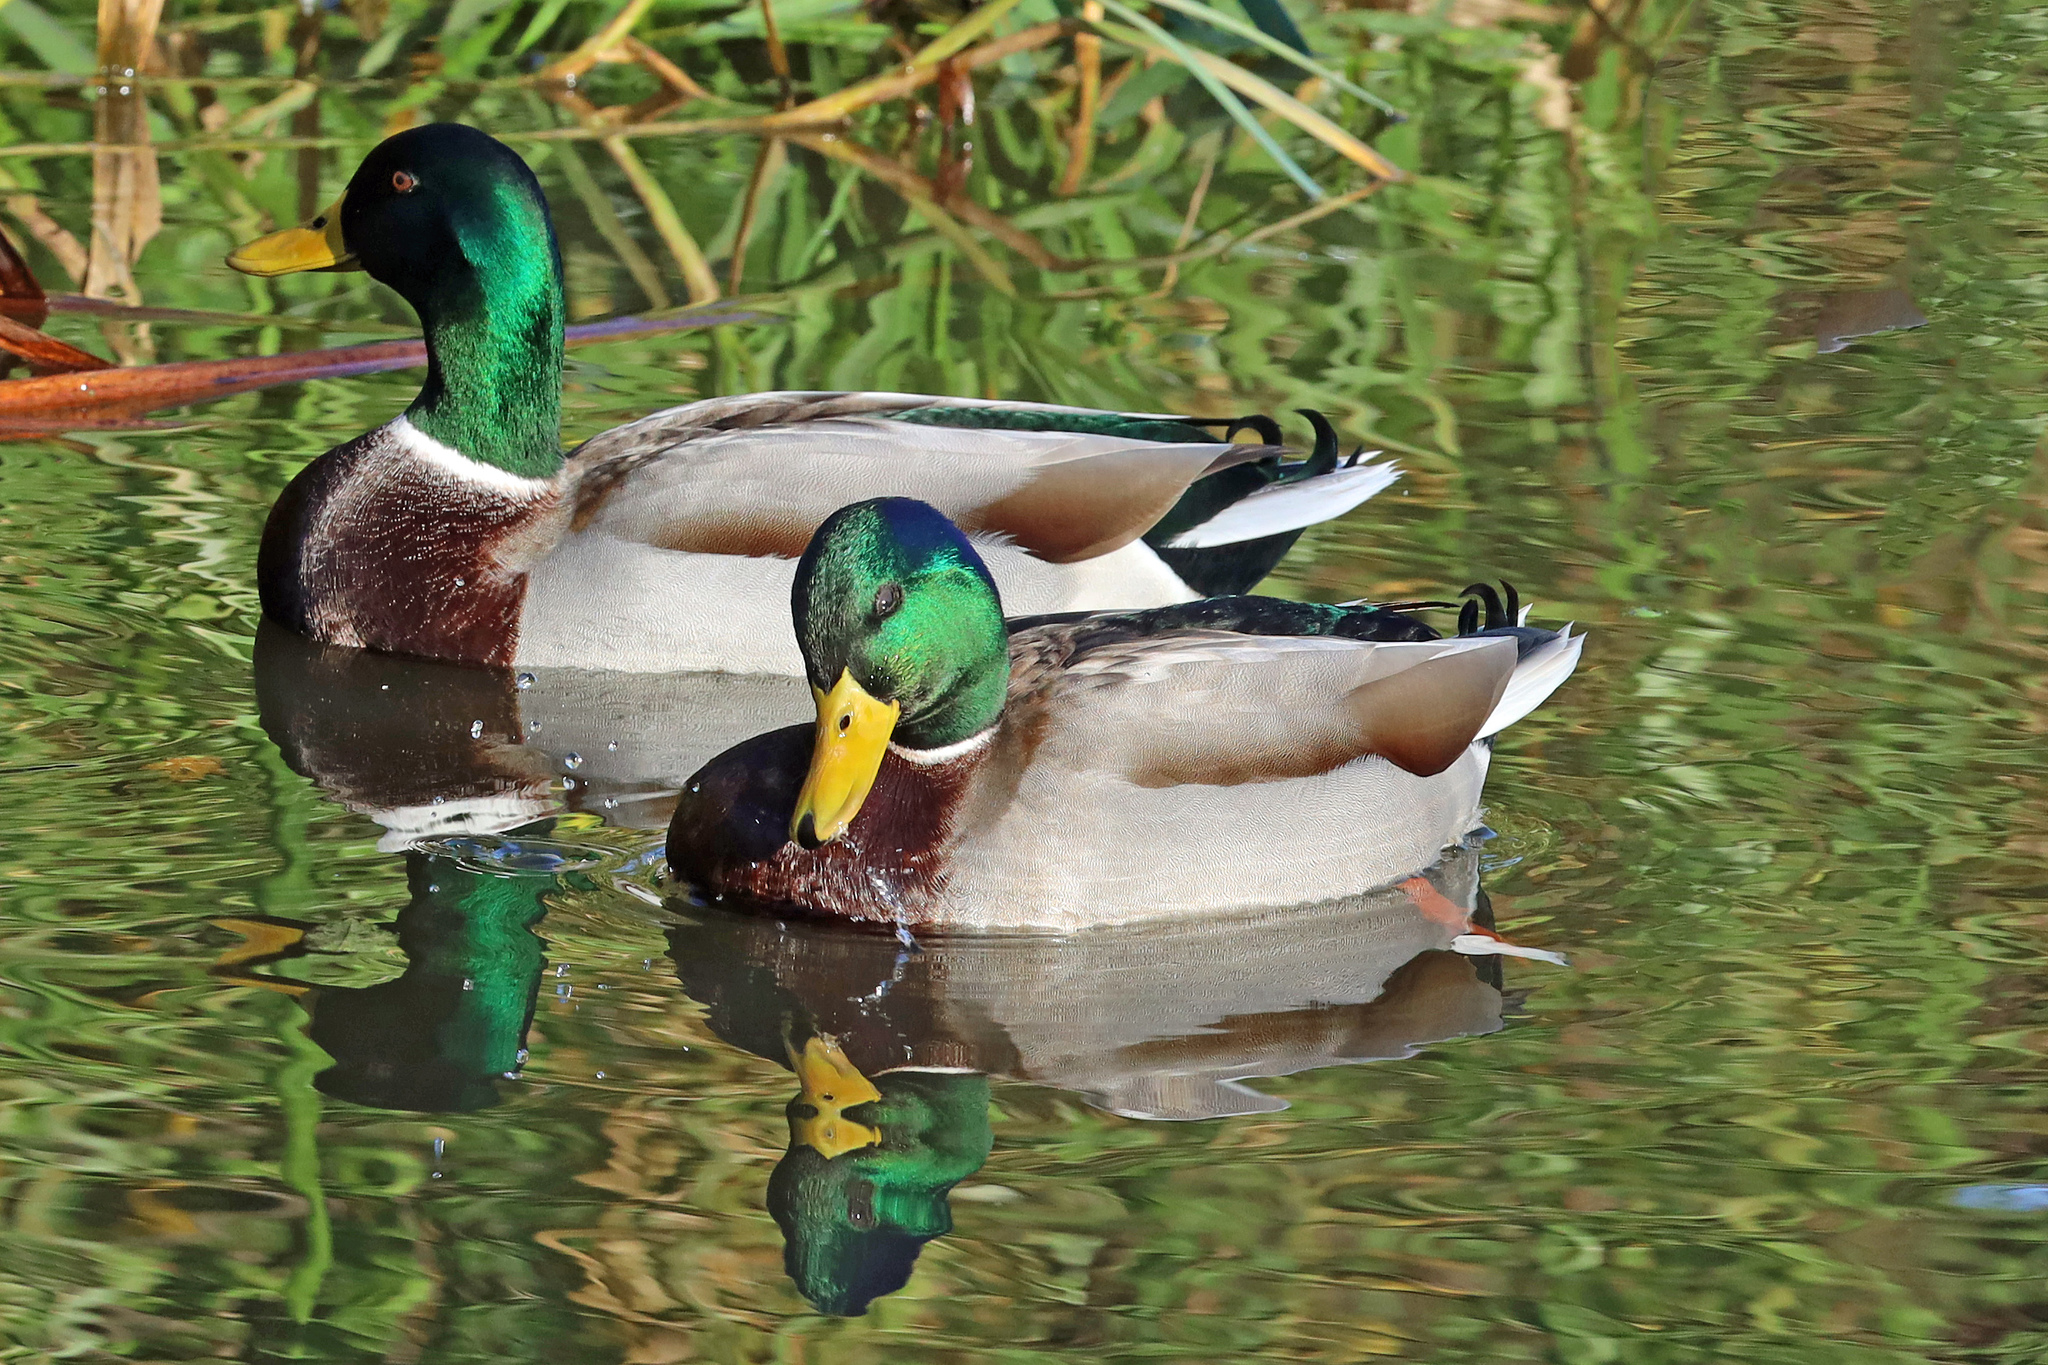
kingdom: Animalia
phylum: Chordata
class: Aves
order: Anseriformes
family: Anatidae
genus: Anas
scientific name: Anas platyrhynchos
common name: Mallard
